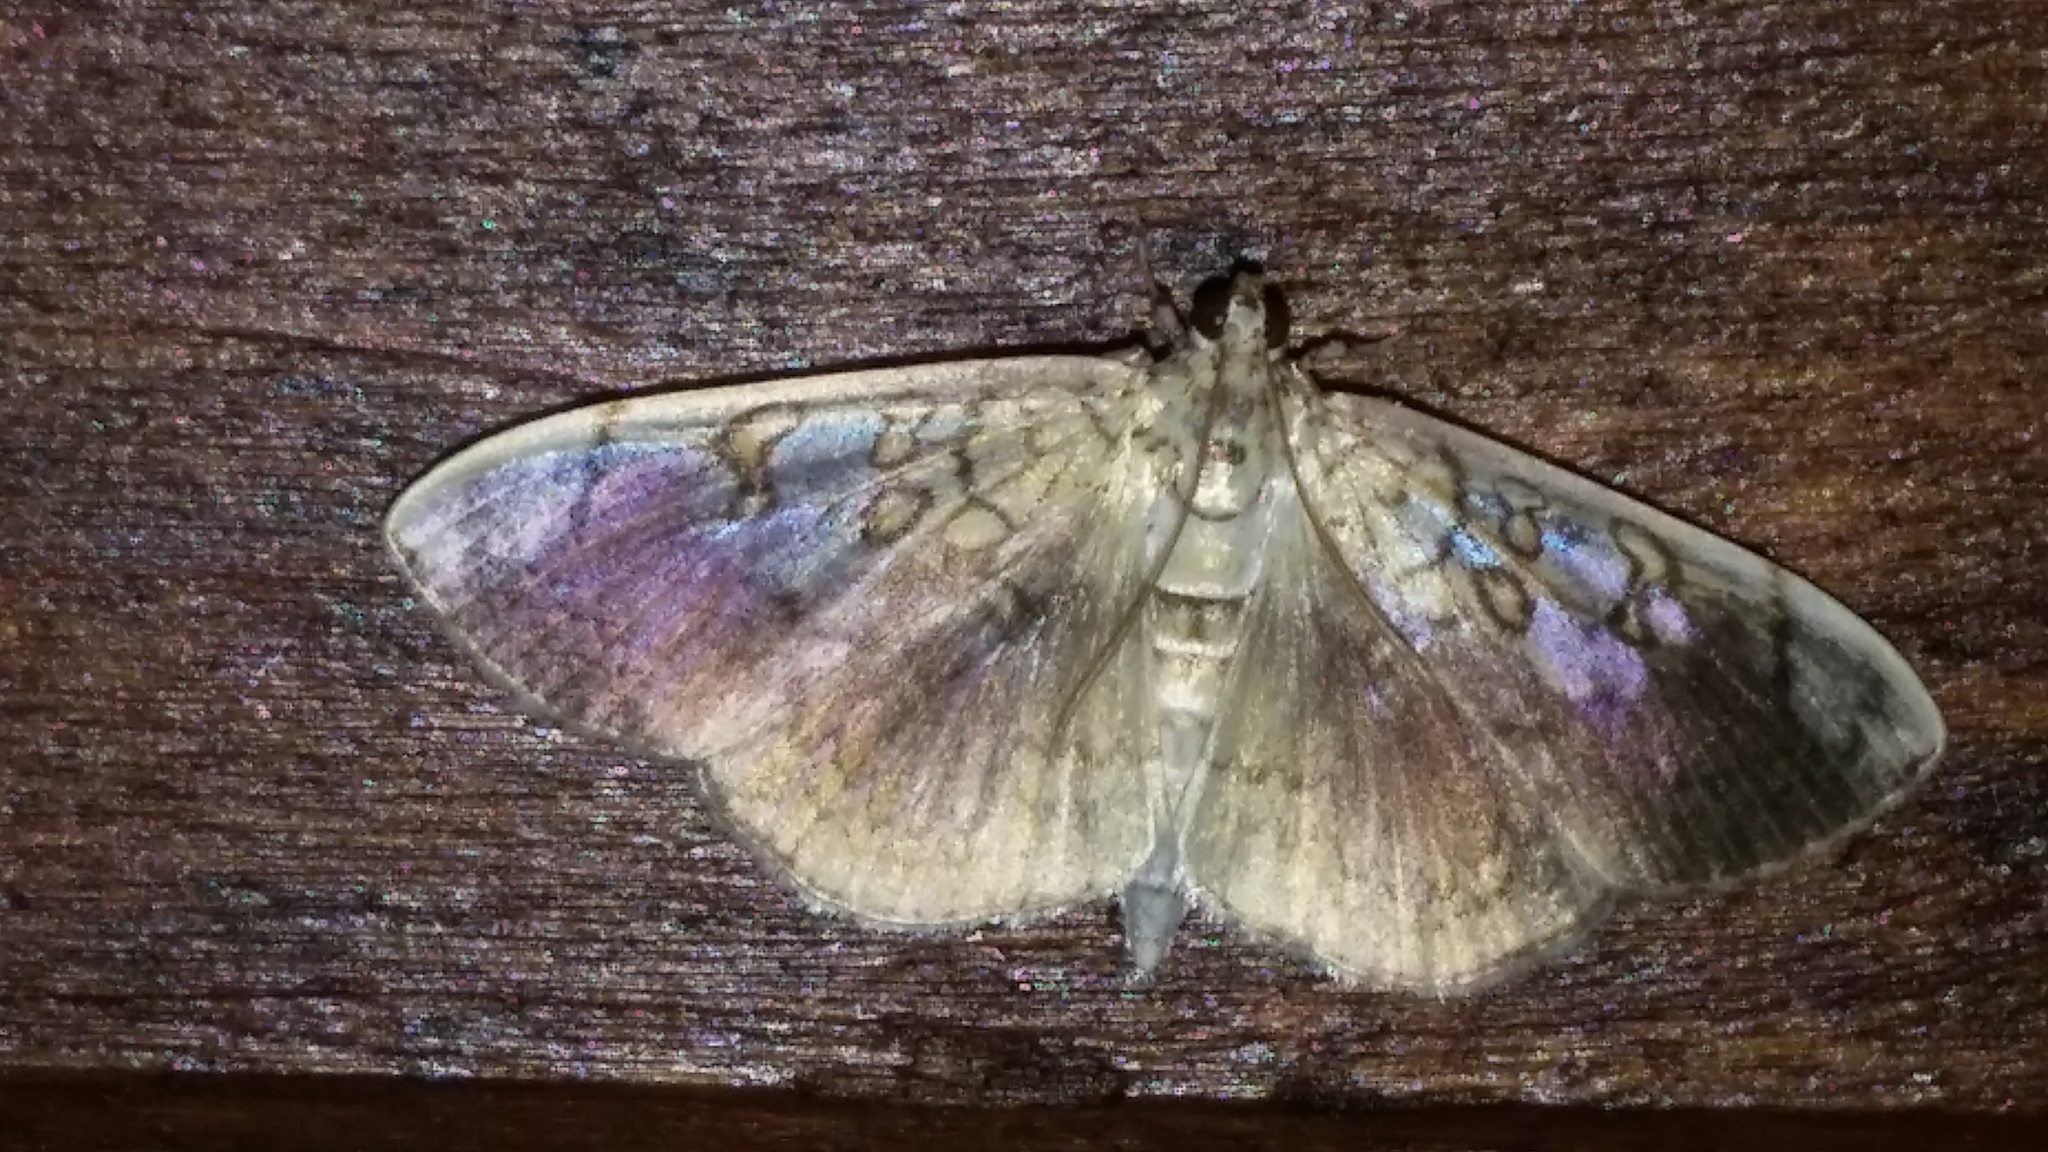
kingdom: Animalia
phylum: Arthropoda
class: Insecta
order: Lepidoptera
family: Crambidae
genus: Pantographa
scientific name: Pantographa limata
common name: Basswood leafroller moth
